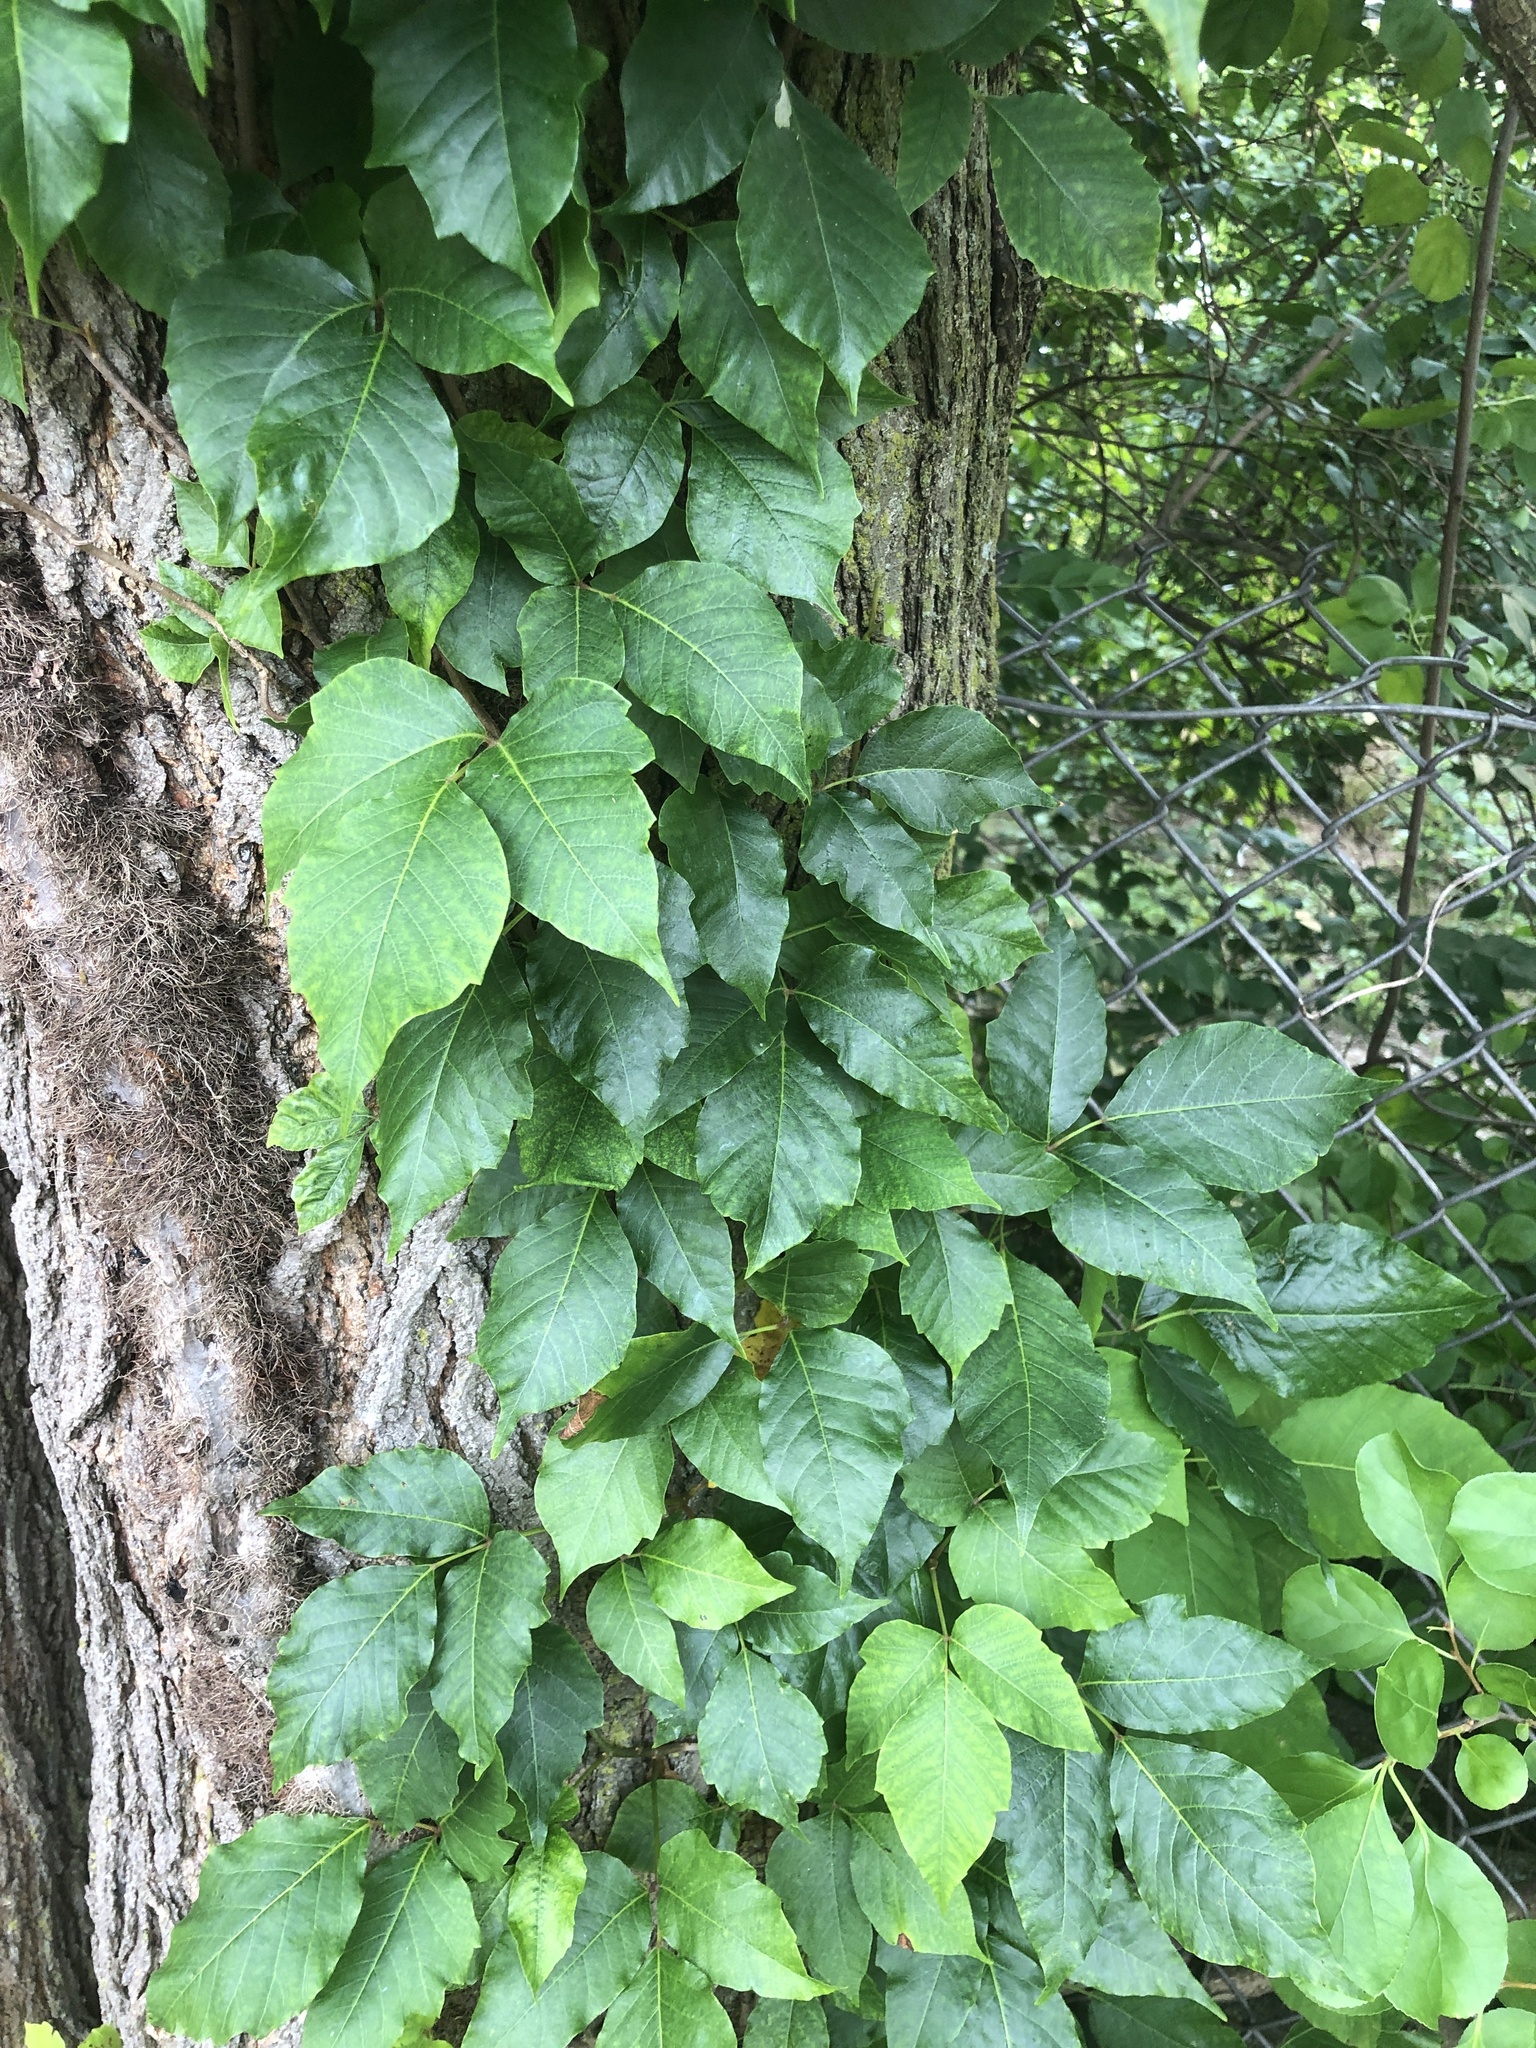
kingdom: Plantae
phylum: Tracheophyta
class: Magnoliopsida
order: Sapindales
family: Anacardiaceae
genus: Toxicodendron
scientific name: Toxicodendron radicans
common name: Poison ivy
